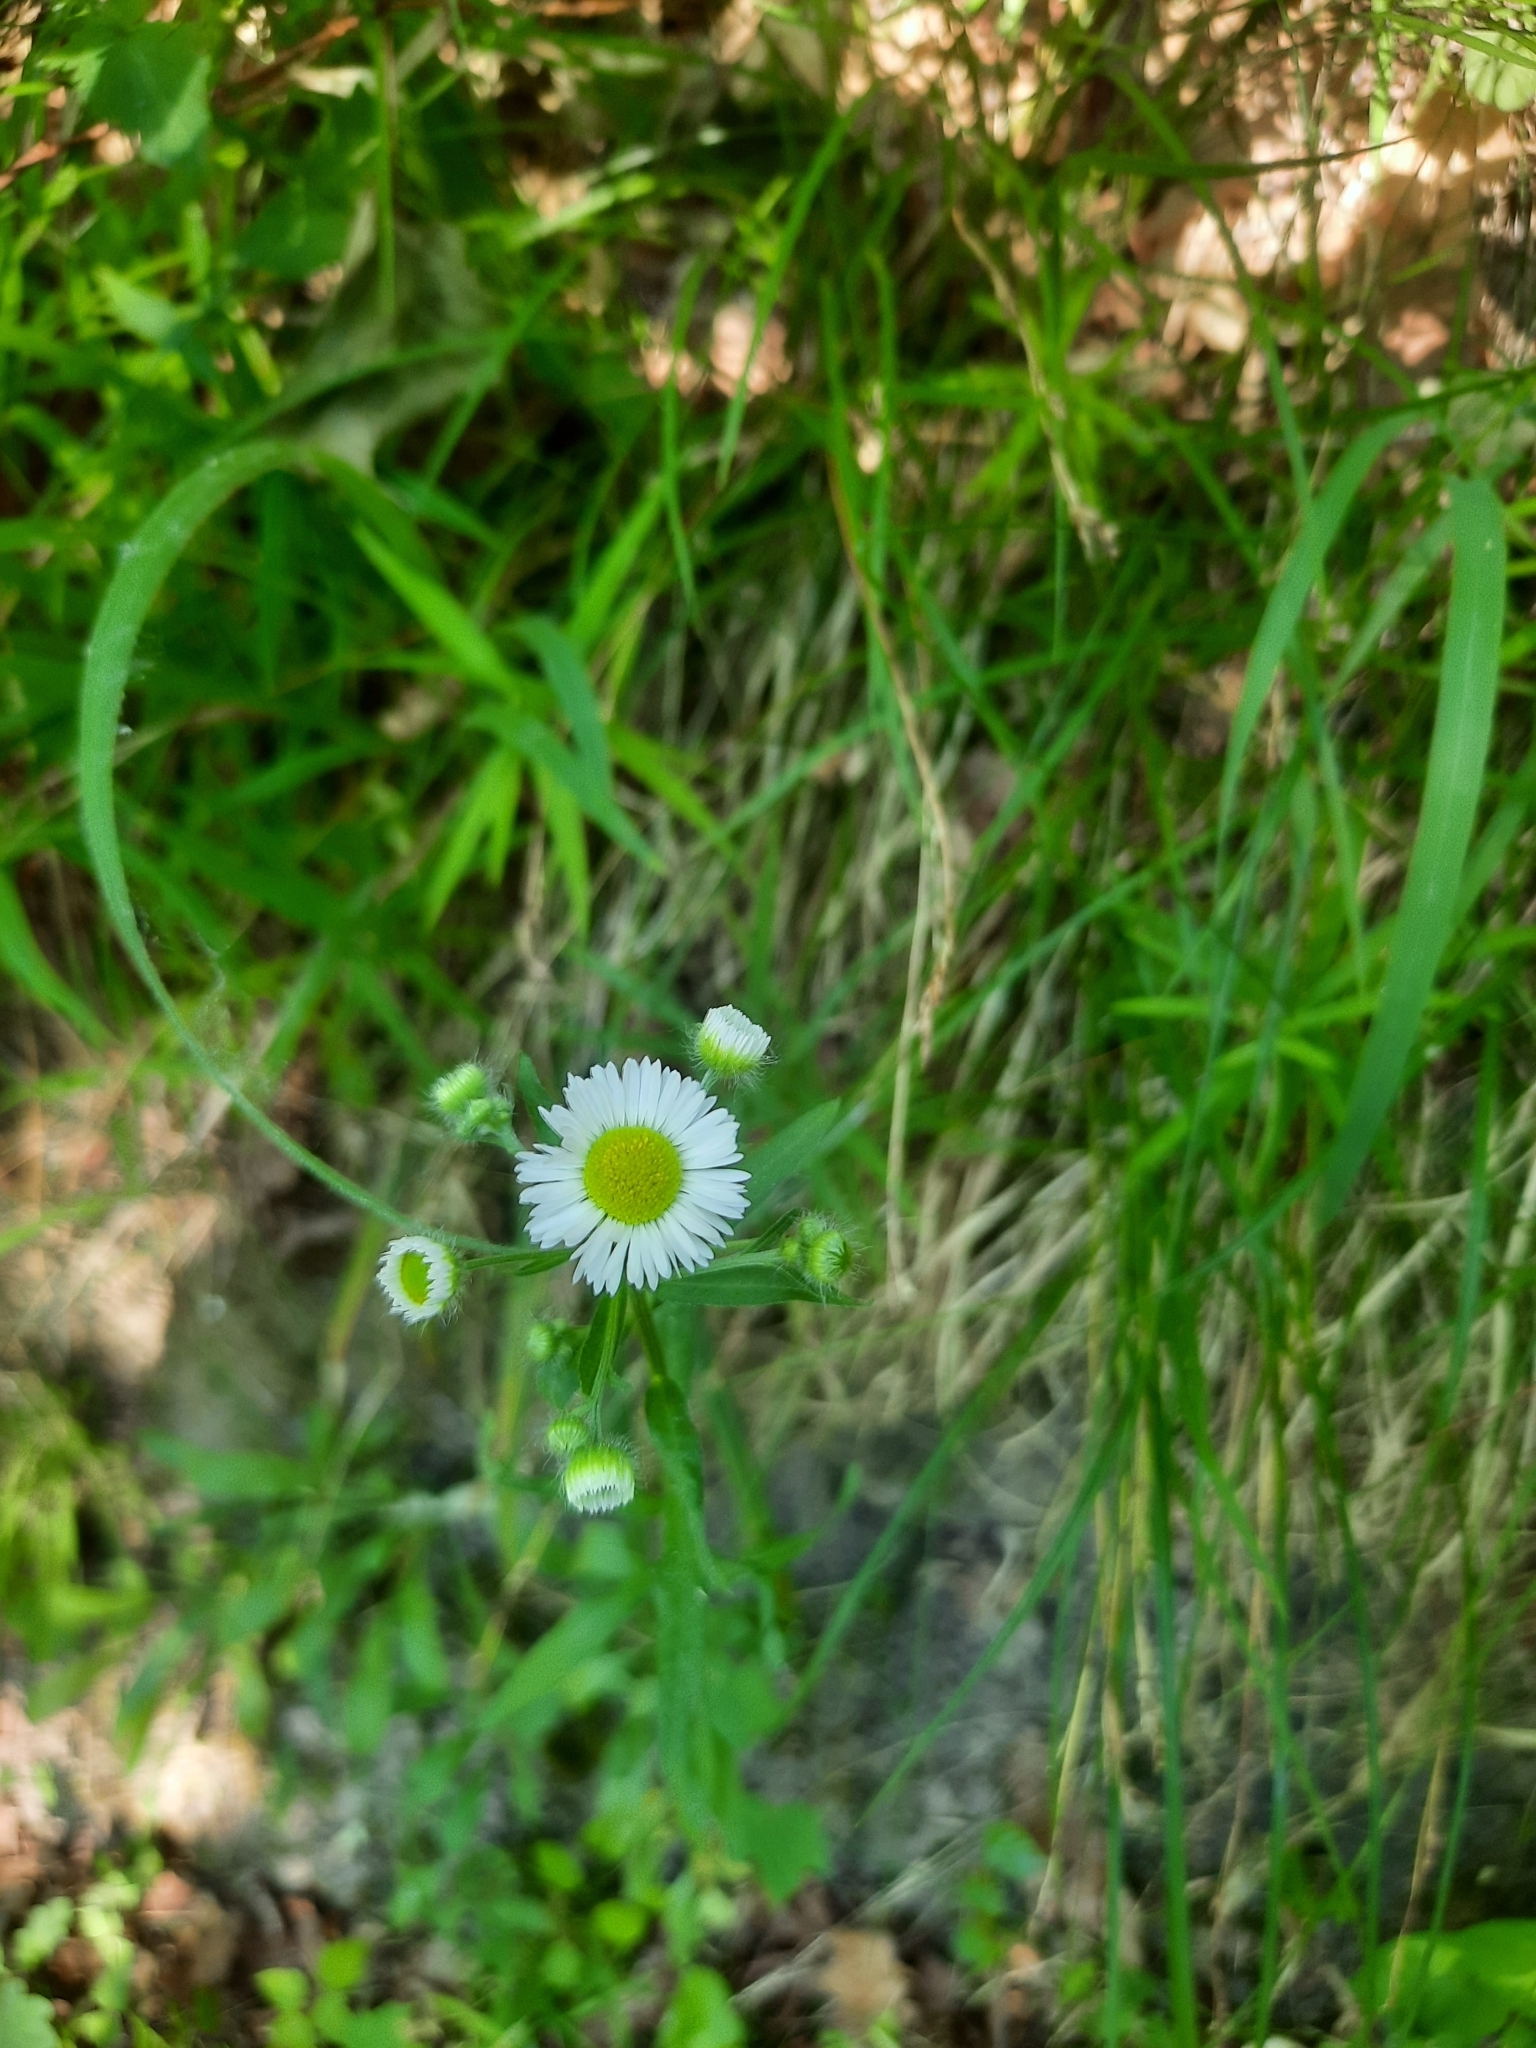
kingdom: Plantae
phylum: Tracheophyta
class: Magnoliopsida
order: Asterales
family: Asteraceae
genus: Erigeron
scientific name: Erigeron annuus
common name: Tall fleabane
